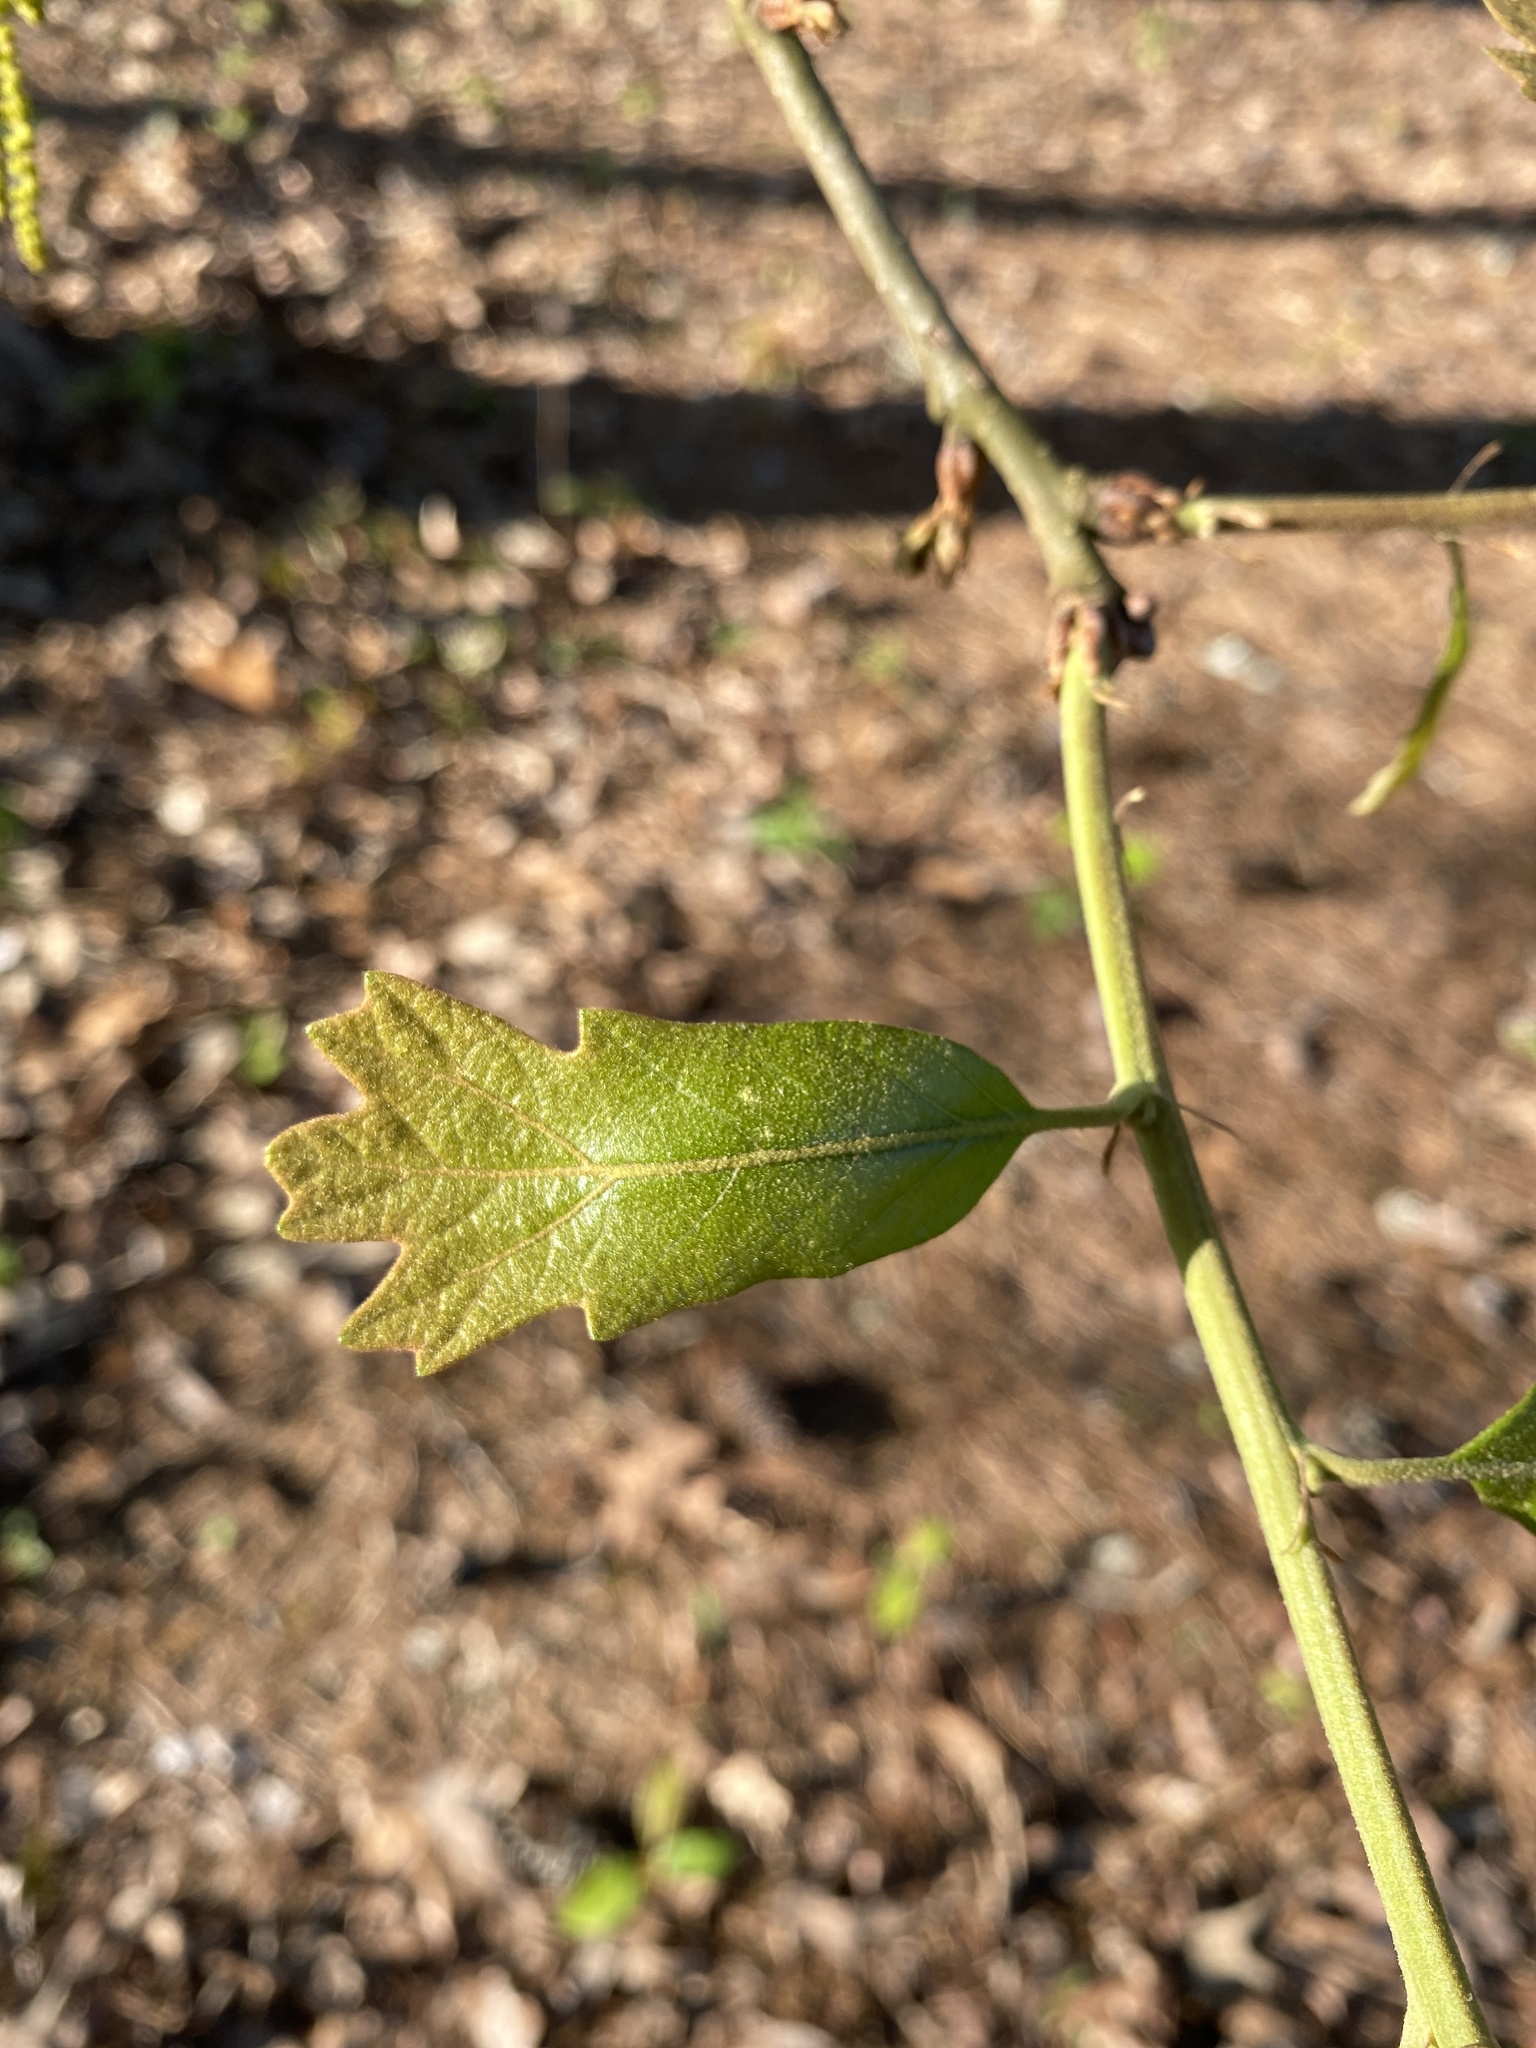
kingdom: Plantae
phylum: Tracheophyta
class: Magnoliopsida
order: Fagales
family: Fagaceae
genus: Quercus
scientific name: Quercus lyrata
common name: Overcup oak
